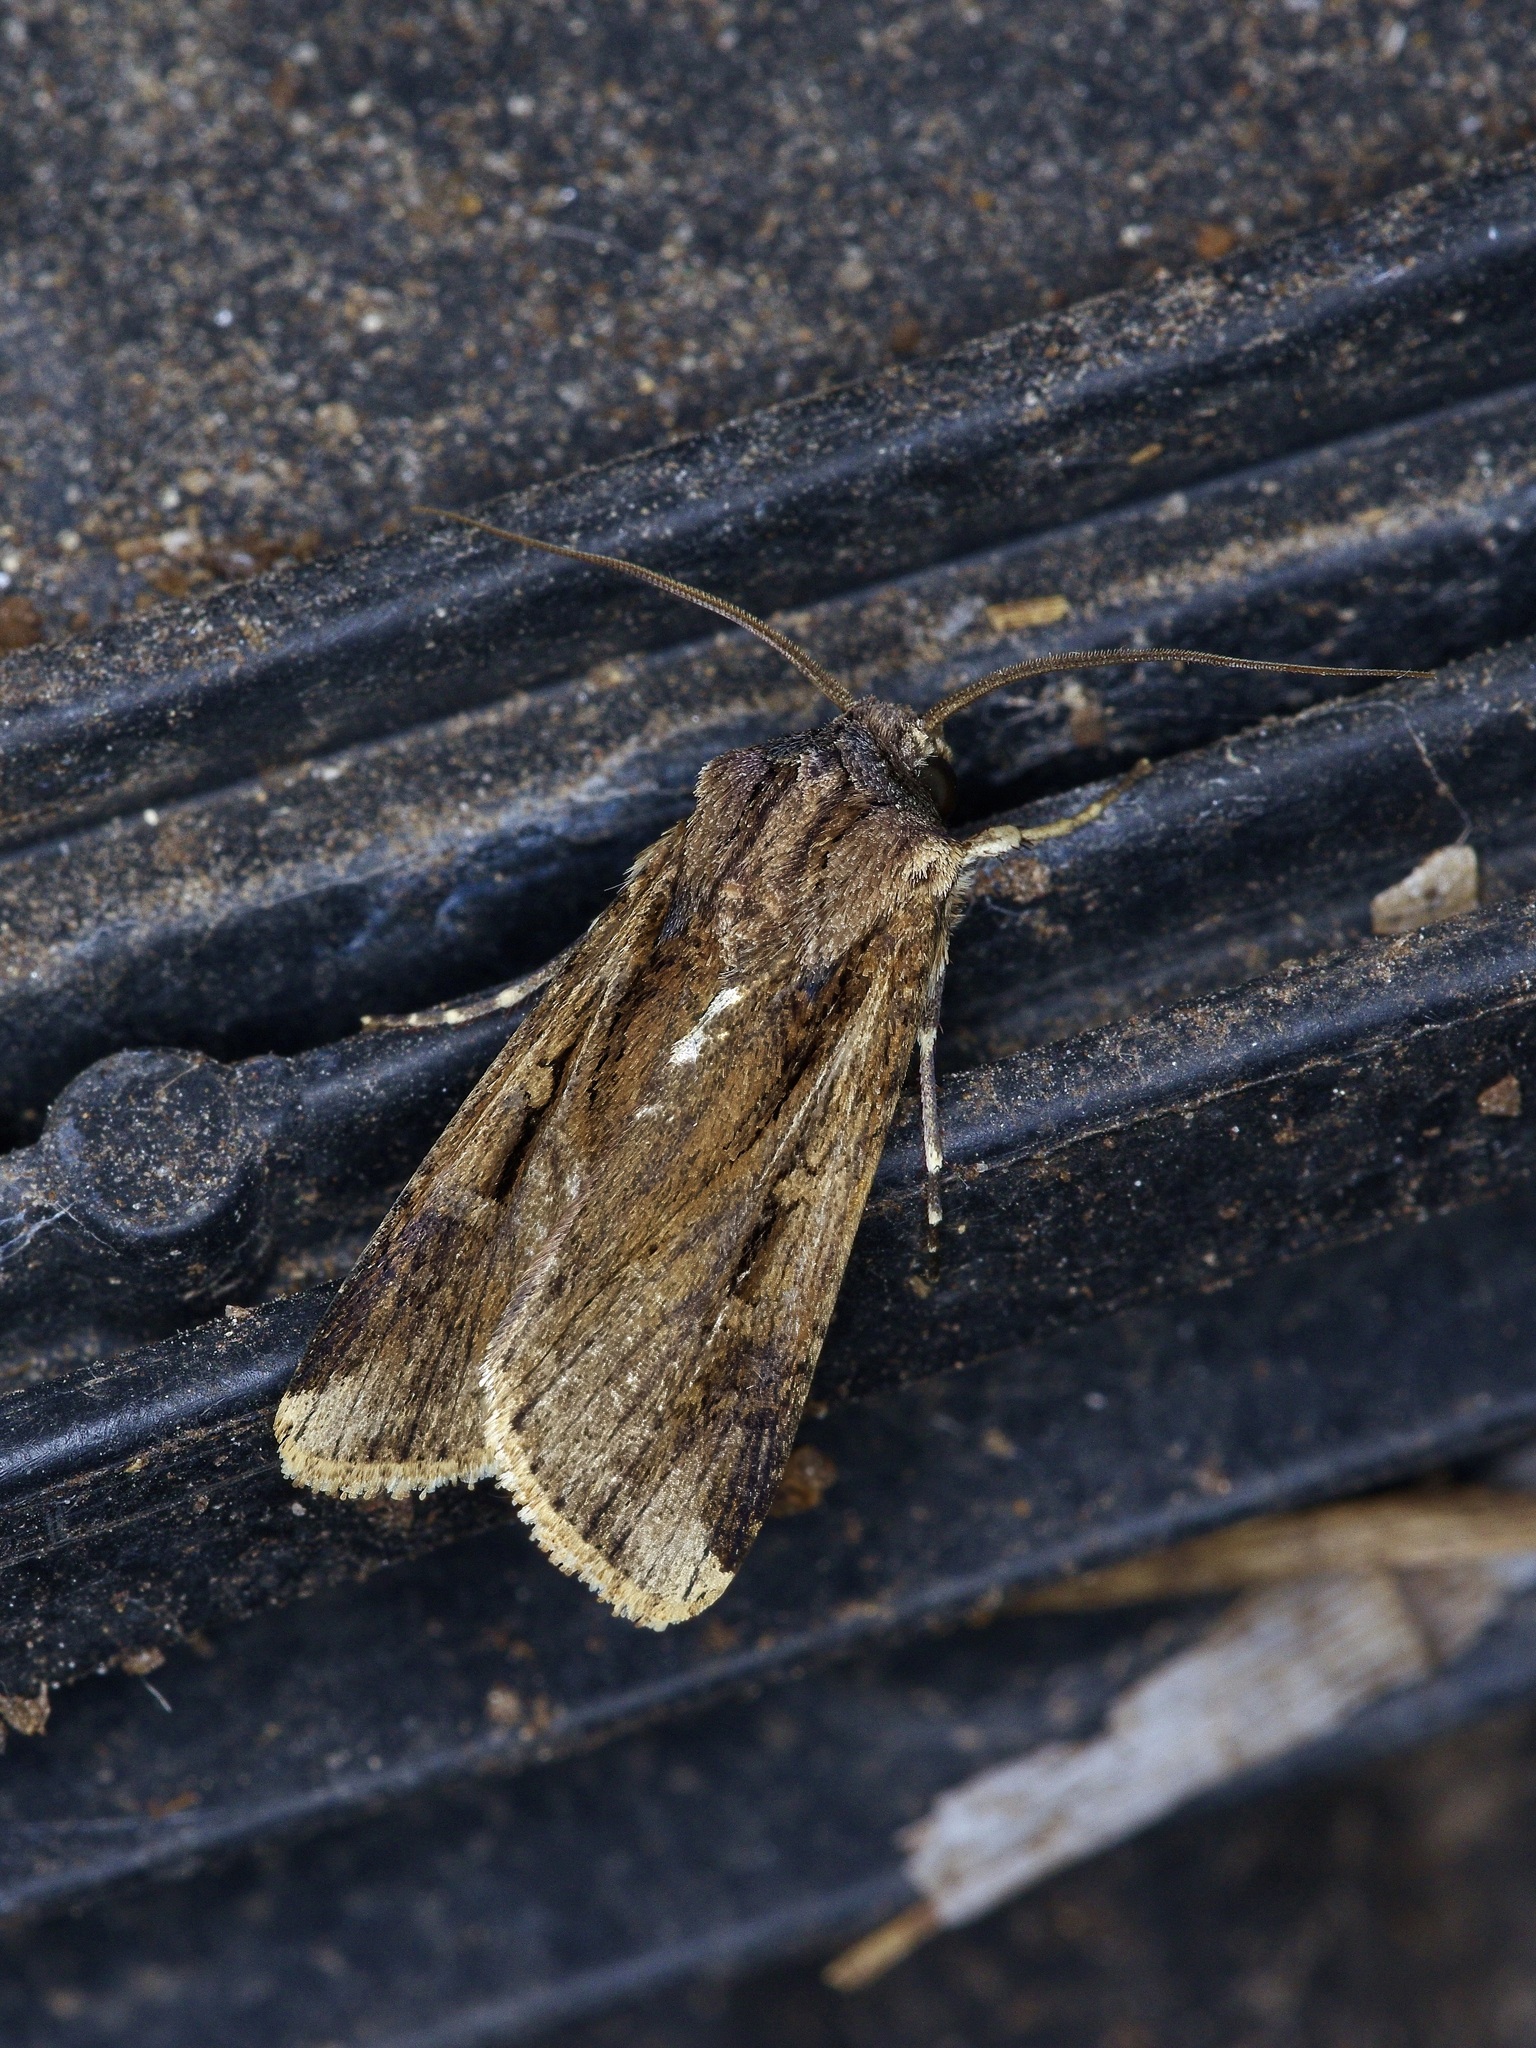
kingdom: Animalia
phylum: Arthropoda
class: Insecta
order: Lepidoptera
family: Noctuidae
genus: Feltia
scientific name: Feltia subterranea
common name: Granulate cutworm
